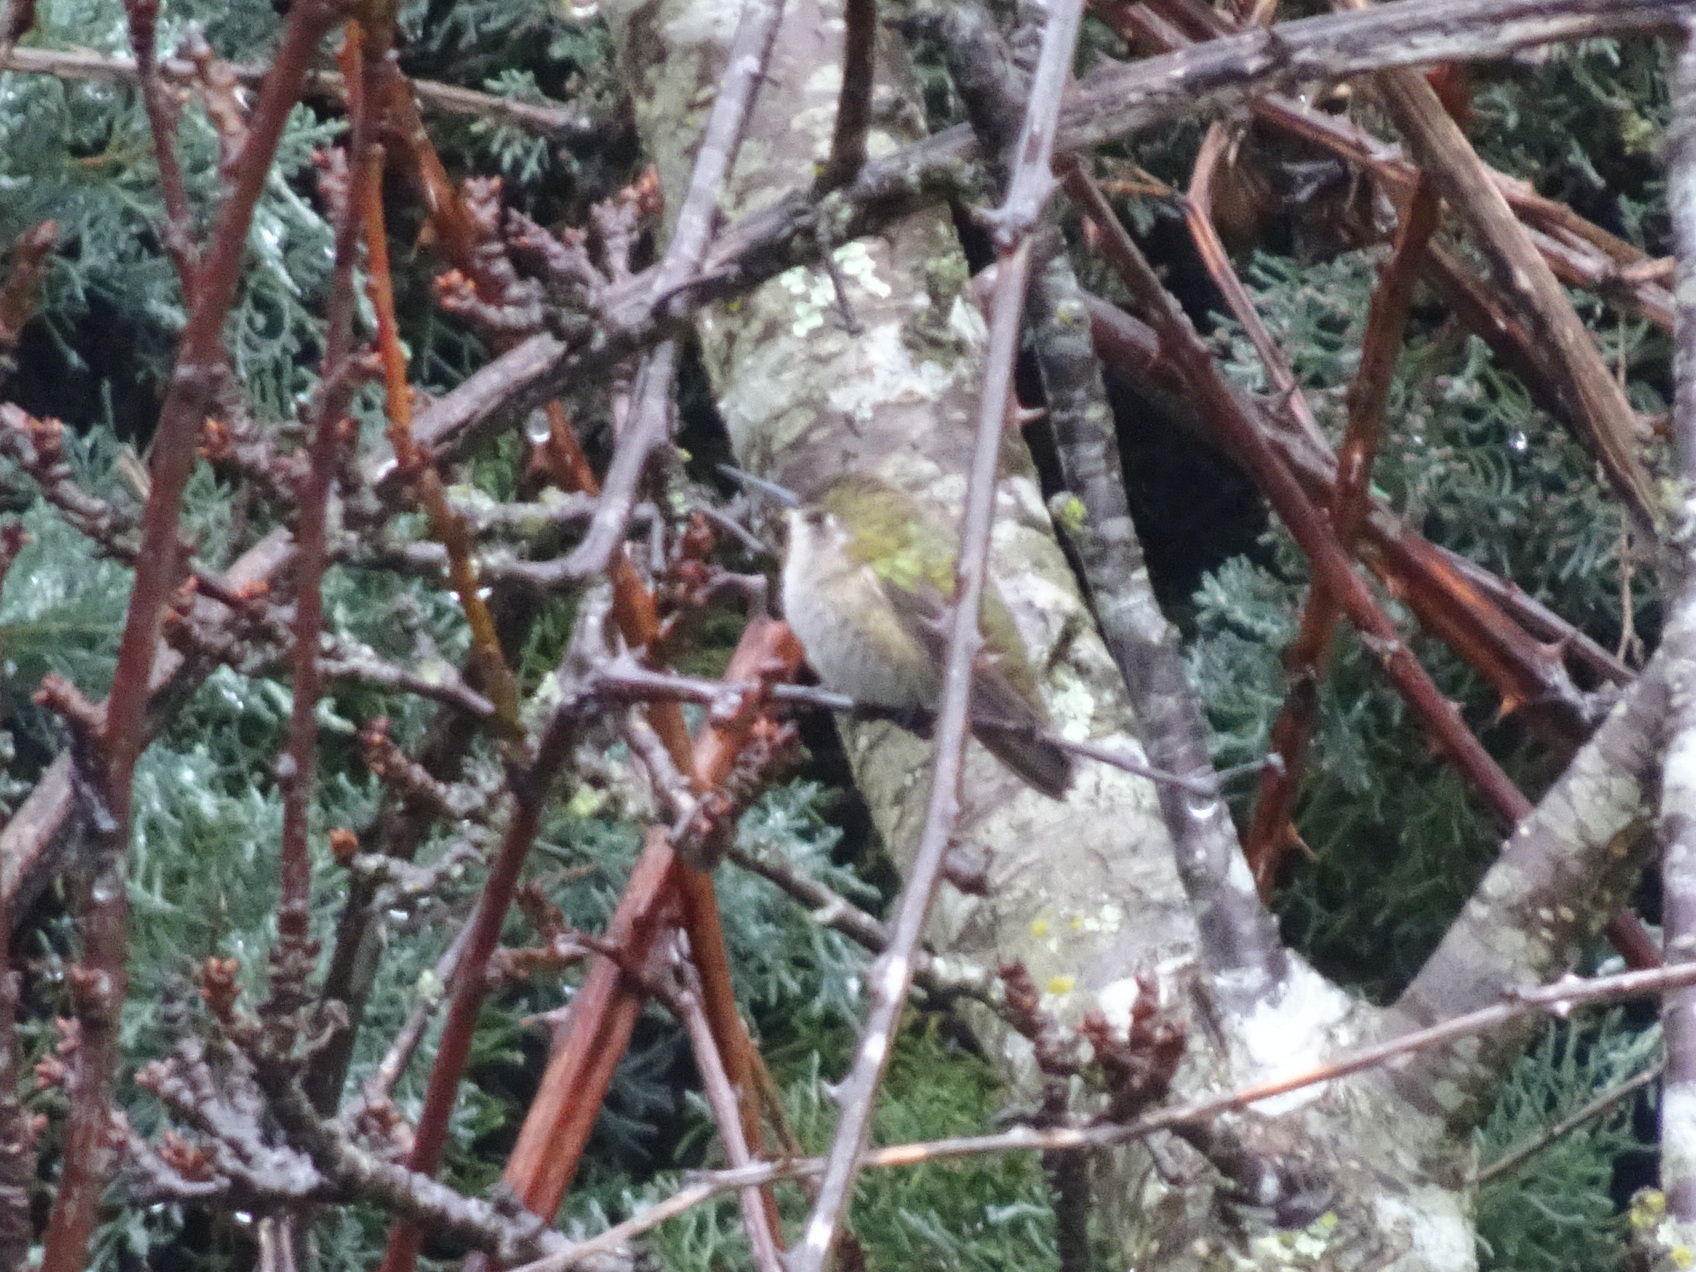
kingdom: Animalia
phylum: Chordata
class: Aves
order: Apodiformes
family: Trochilidae
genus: Calypte
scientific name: Calypte anna
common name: Anna's hummingbird
